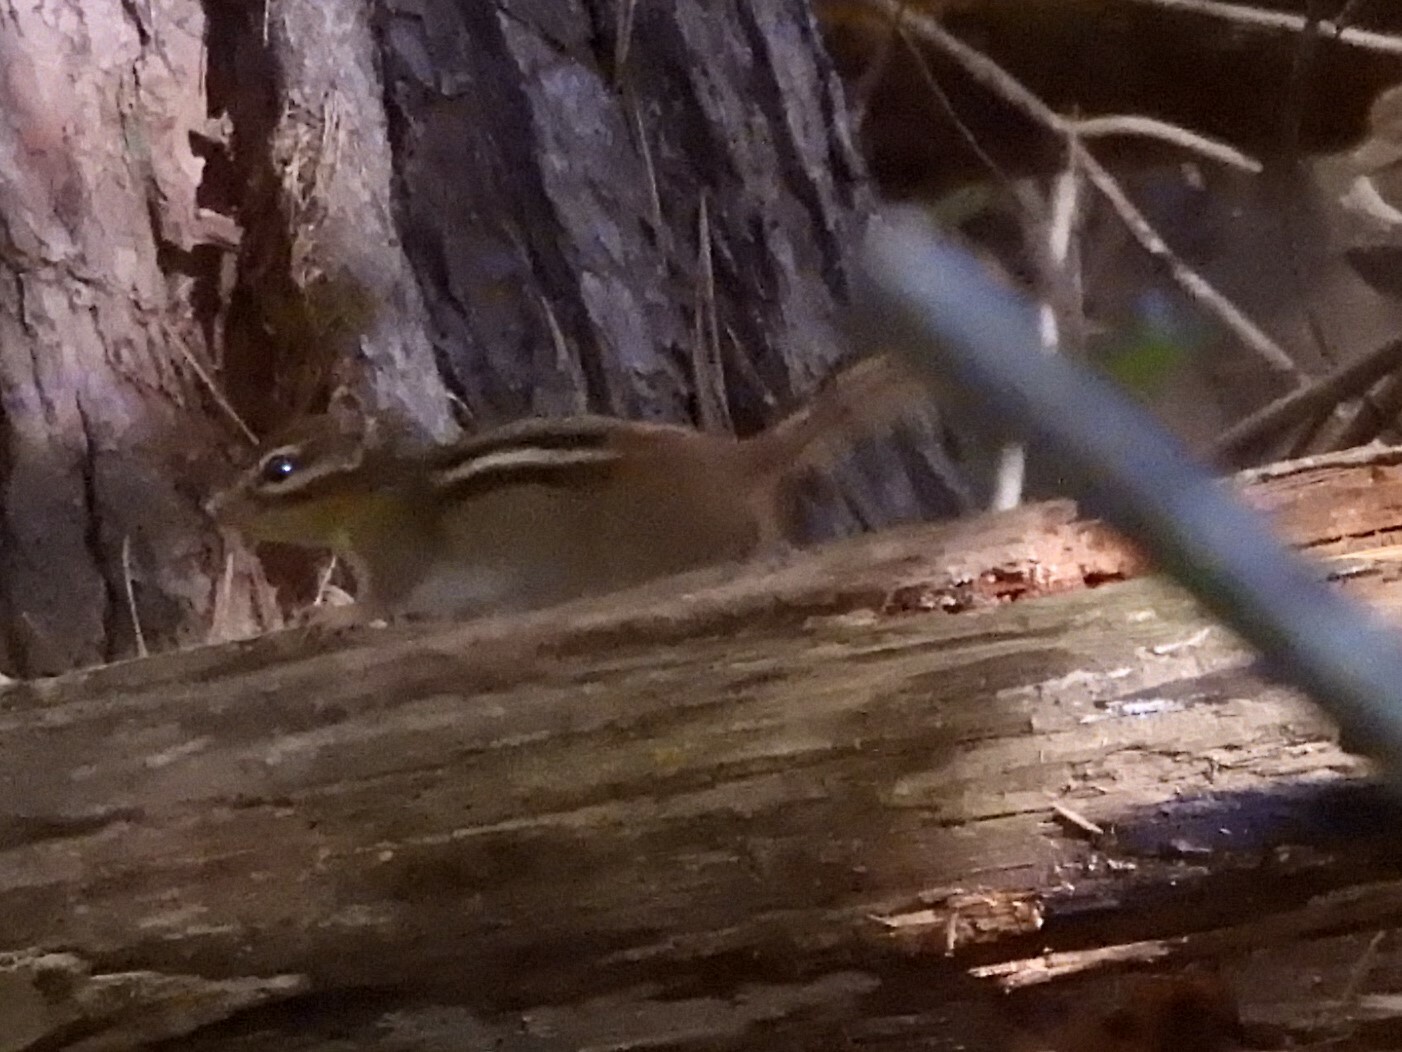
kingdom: Animalia
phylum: Chordata
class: Mammalia
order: Rodentia
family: Sciuridae
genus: Tamias
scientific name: Tamias striatus
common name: Eastern chipmunk
